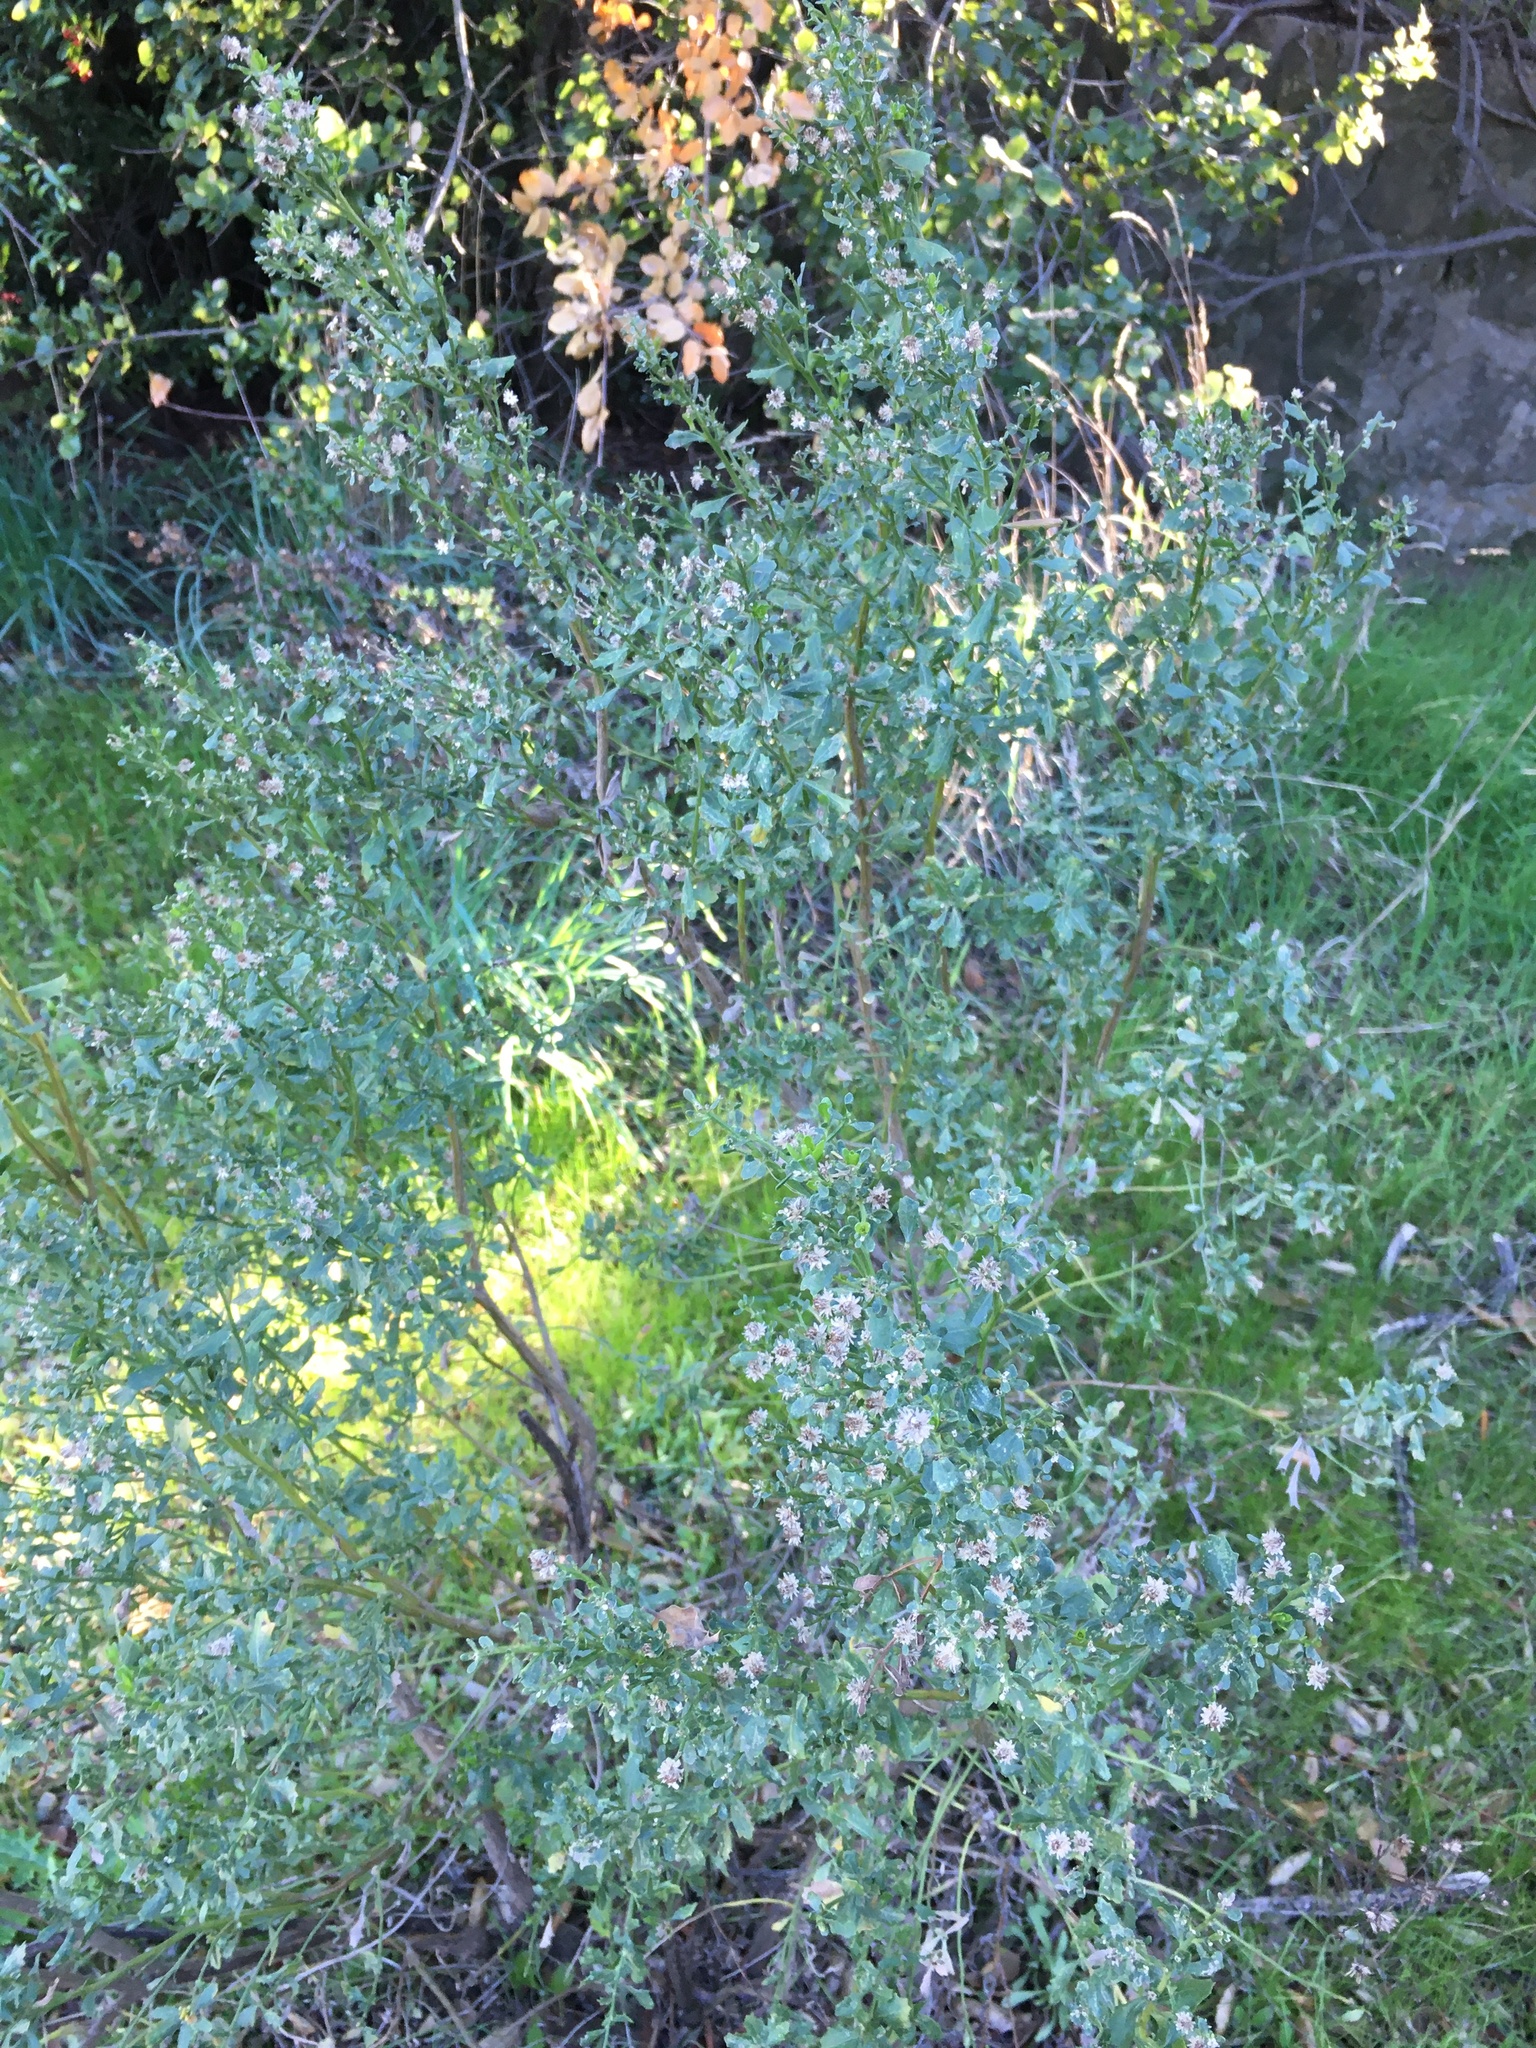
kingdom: Plantae
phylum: Tracheophyta
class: Magnoliopsida
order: Asterales
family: Asteraceae
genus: Baccharis
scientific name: Baccharis pilularis
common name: Coyotebrush
